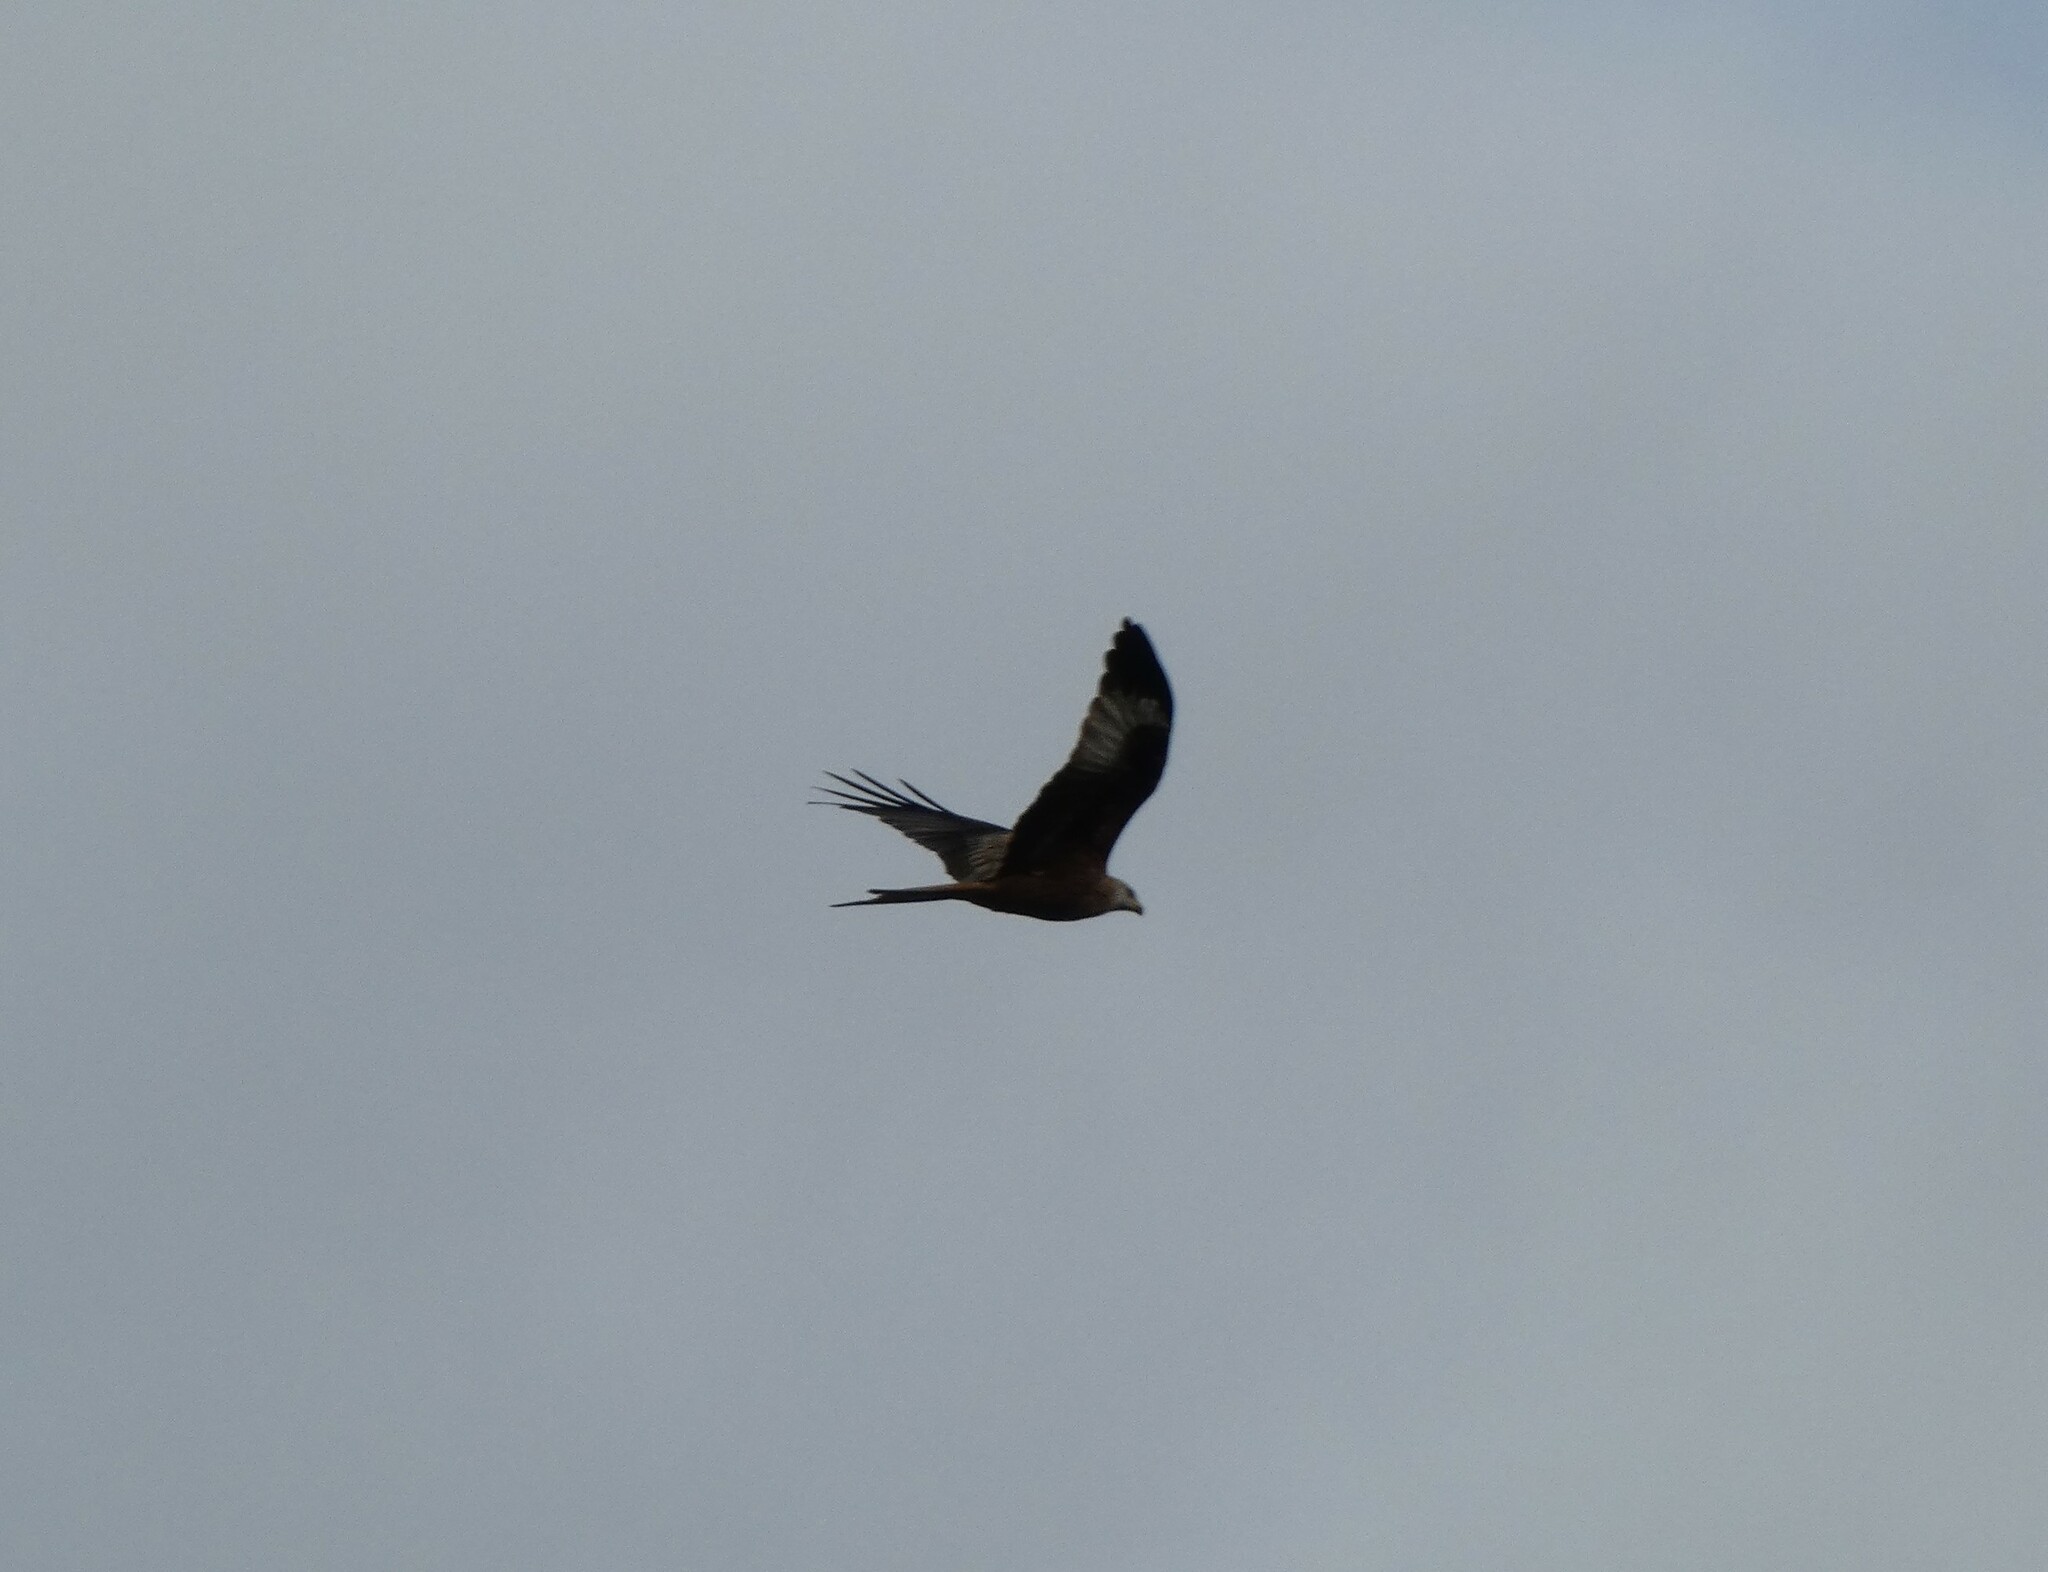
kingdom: Animalia
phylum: Chordata
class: Aves
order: Accipitriformes
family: Accipitridae
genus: Milvus
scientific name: Milvus milvus
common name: Red kite
